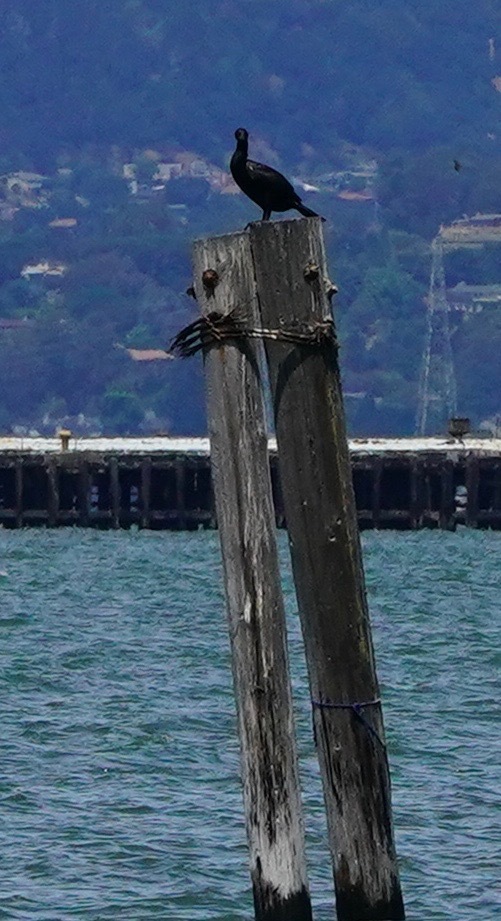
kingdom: Animalia
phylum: Chordata
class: Aves
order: Suliformes
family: Phalacrocoracidae
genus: Phalacrocorax
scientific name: Phalacrocorax auritus
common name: Double-crested cormorant
